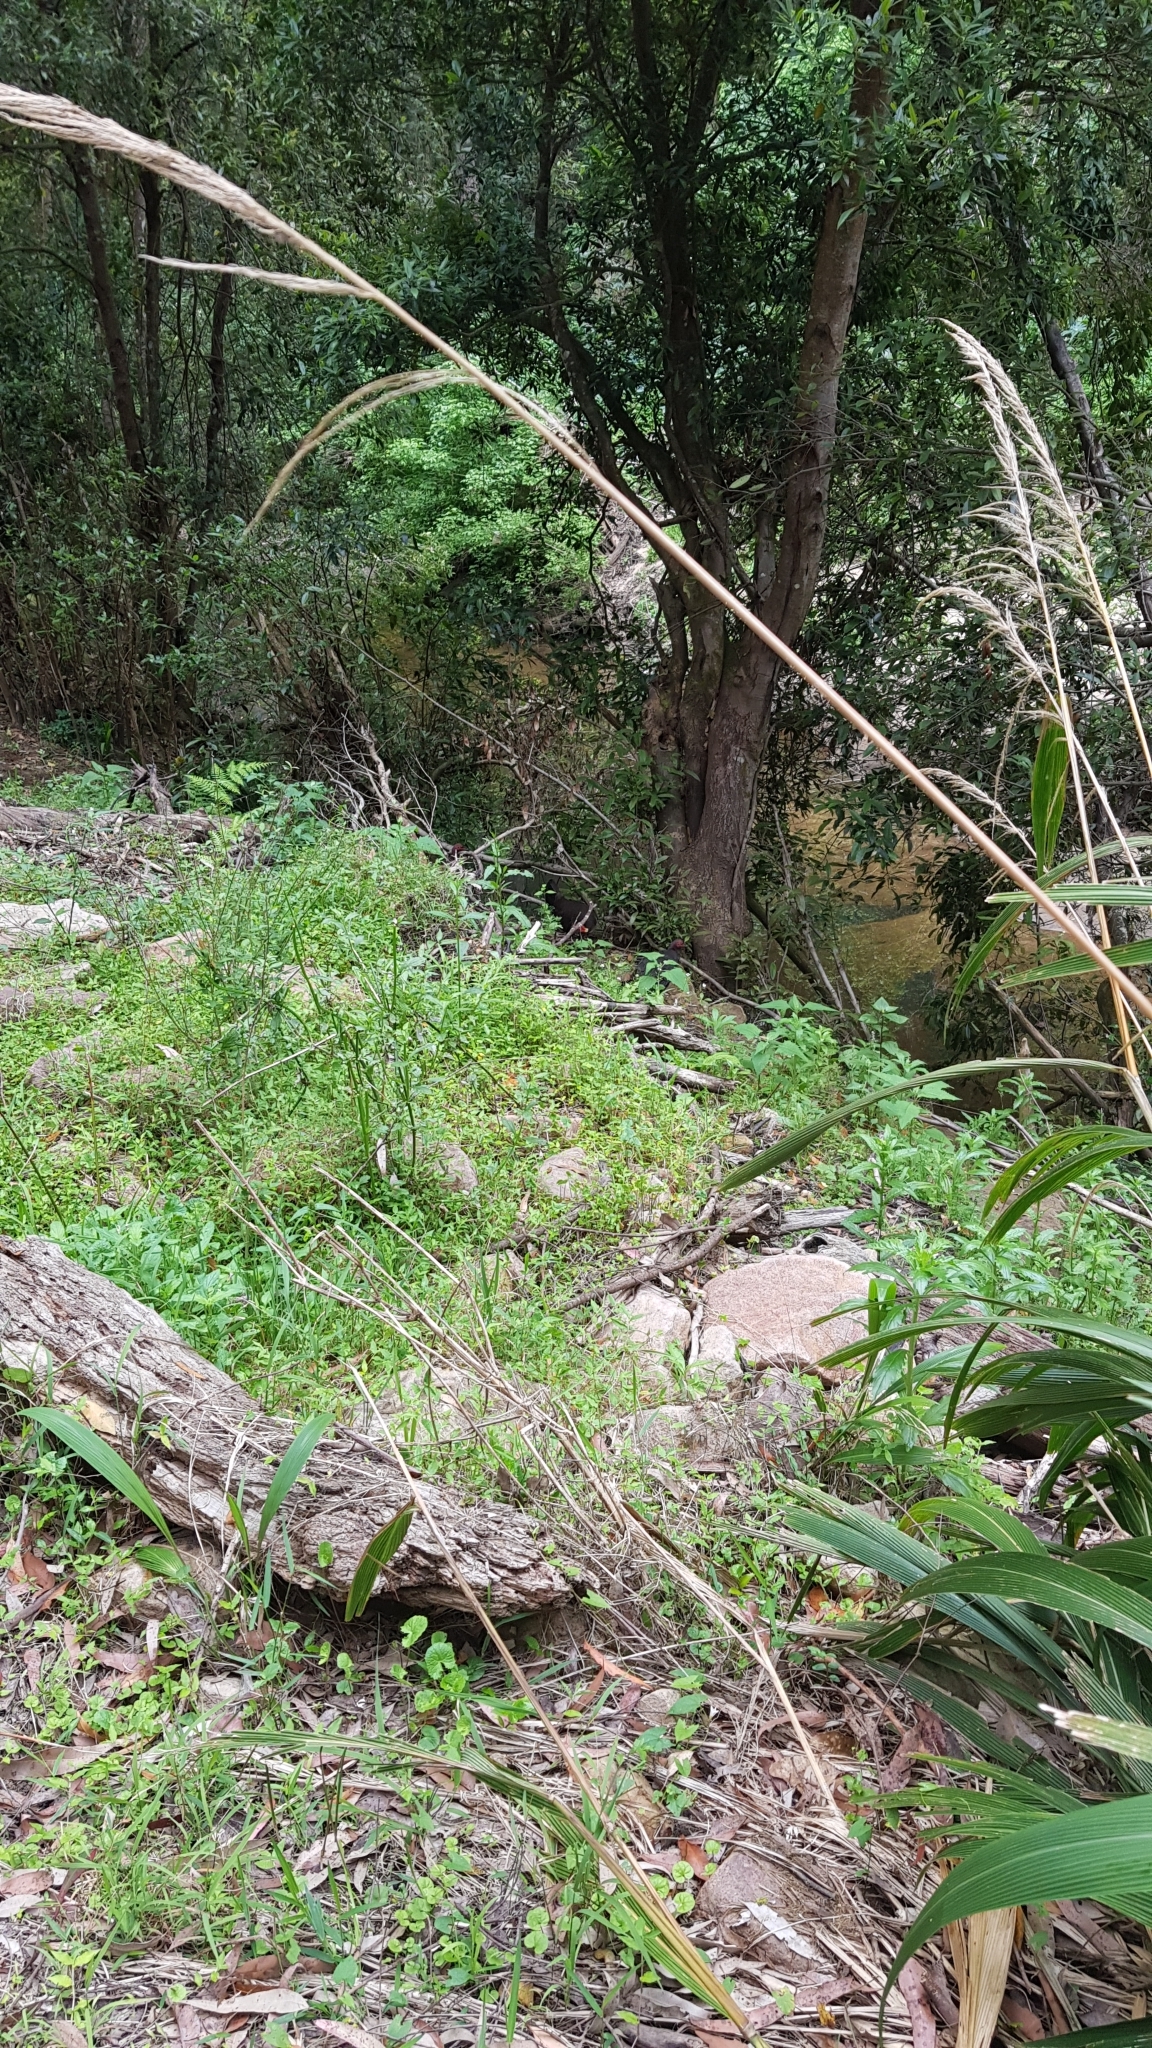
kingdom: Animalia
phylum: Chordata
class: Aves
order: Galliformes
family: Megapodiidae
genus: Alectura
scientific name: Alectura lathami
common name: Australian brushturkey
